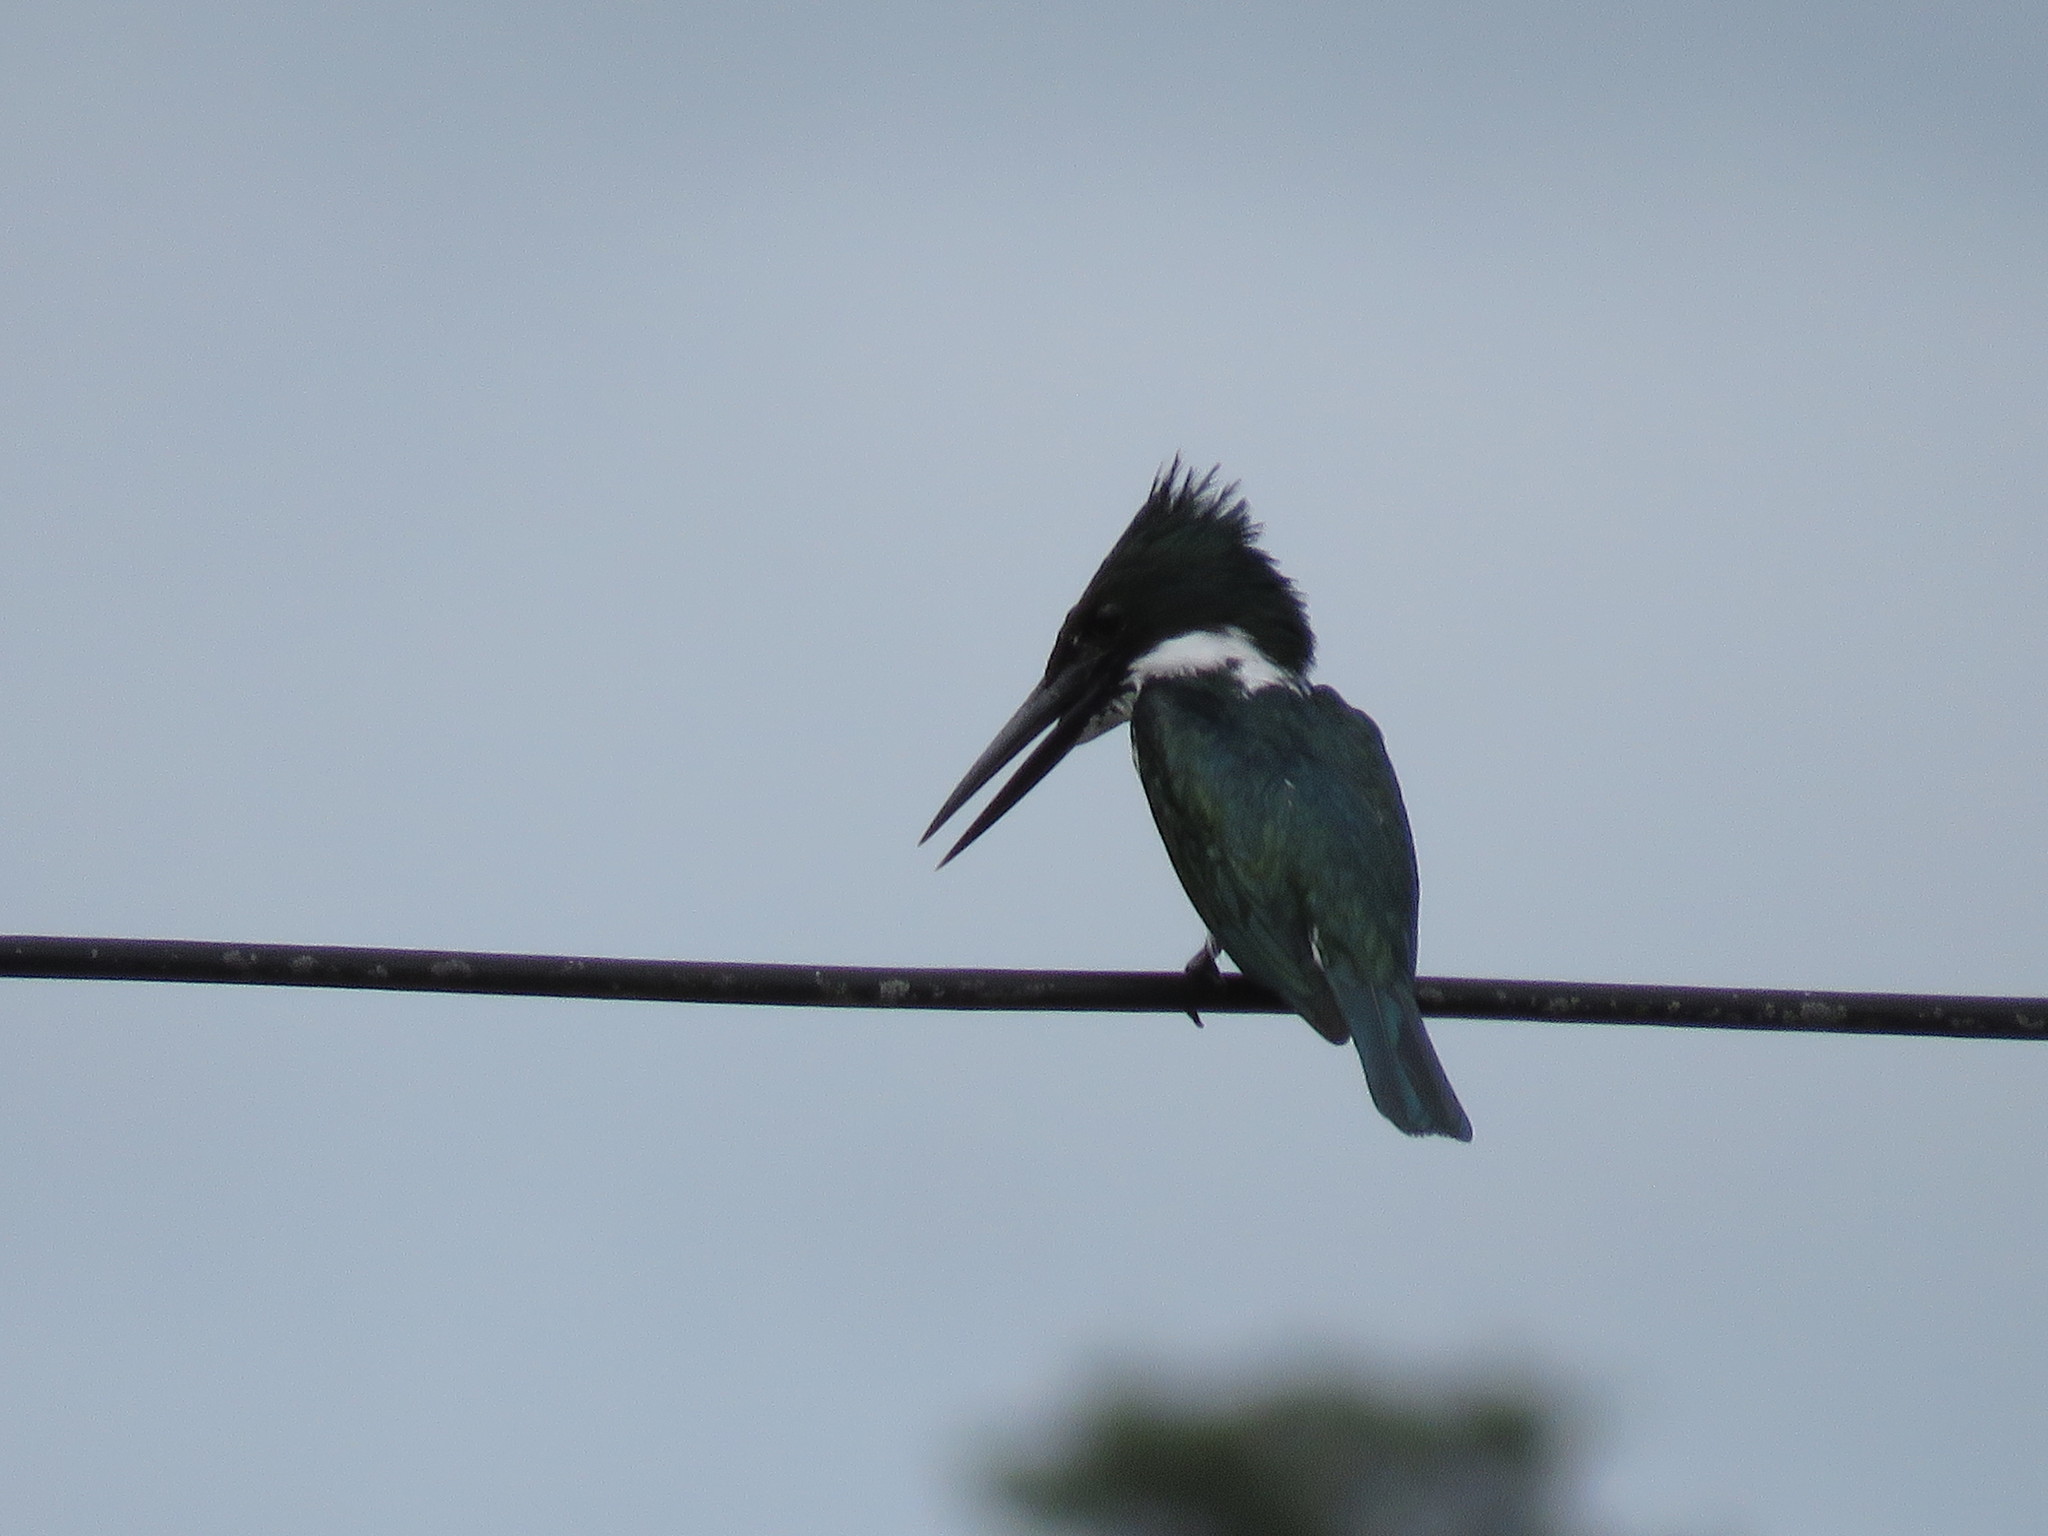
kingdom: Animalia
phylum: Chordata
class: Aves
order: Coraciiformes
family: Alcedinidae
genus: Chloroceryle
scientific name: Chloroceryle amazona
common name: Amazon kingfisher
